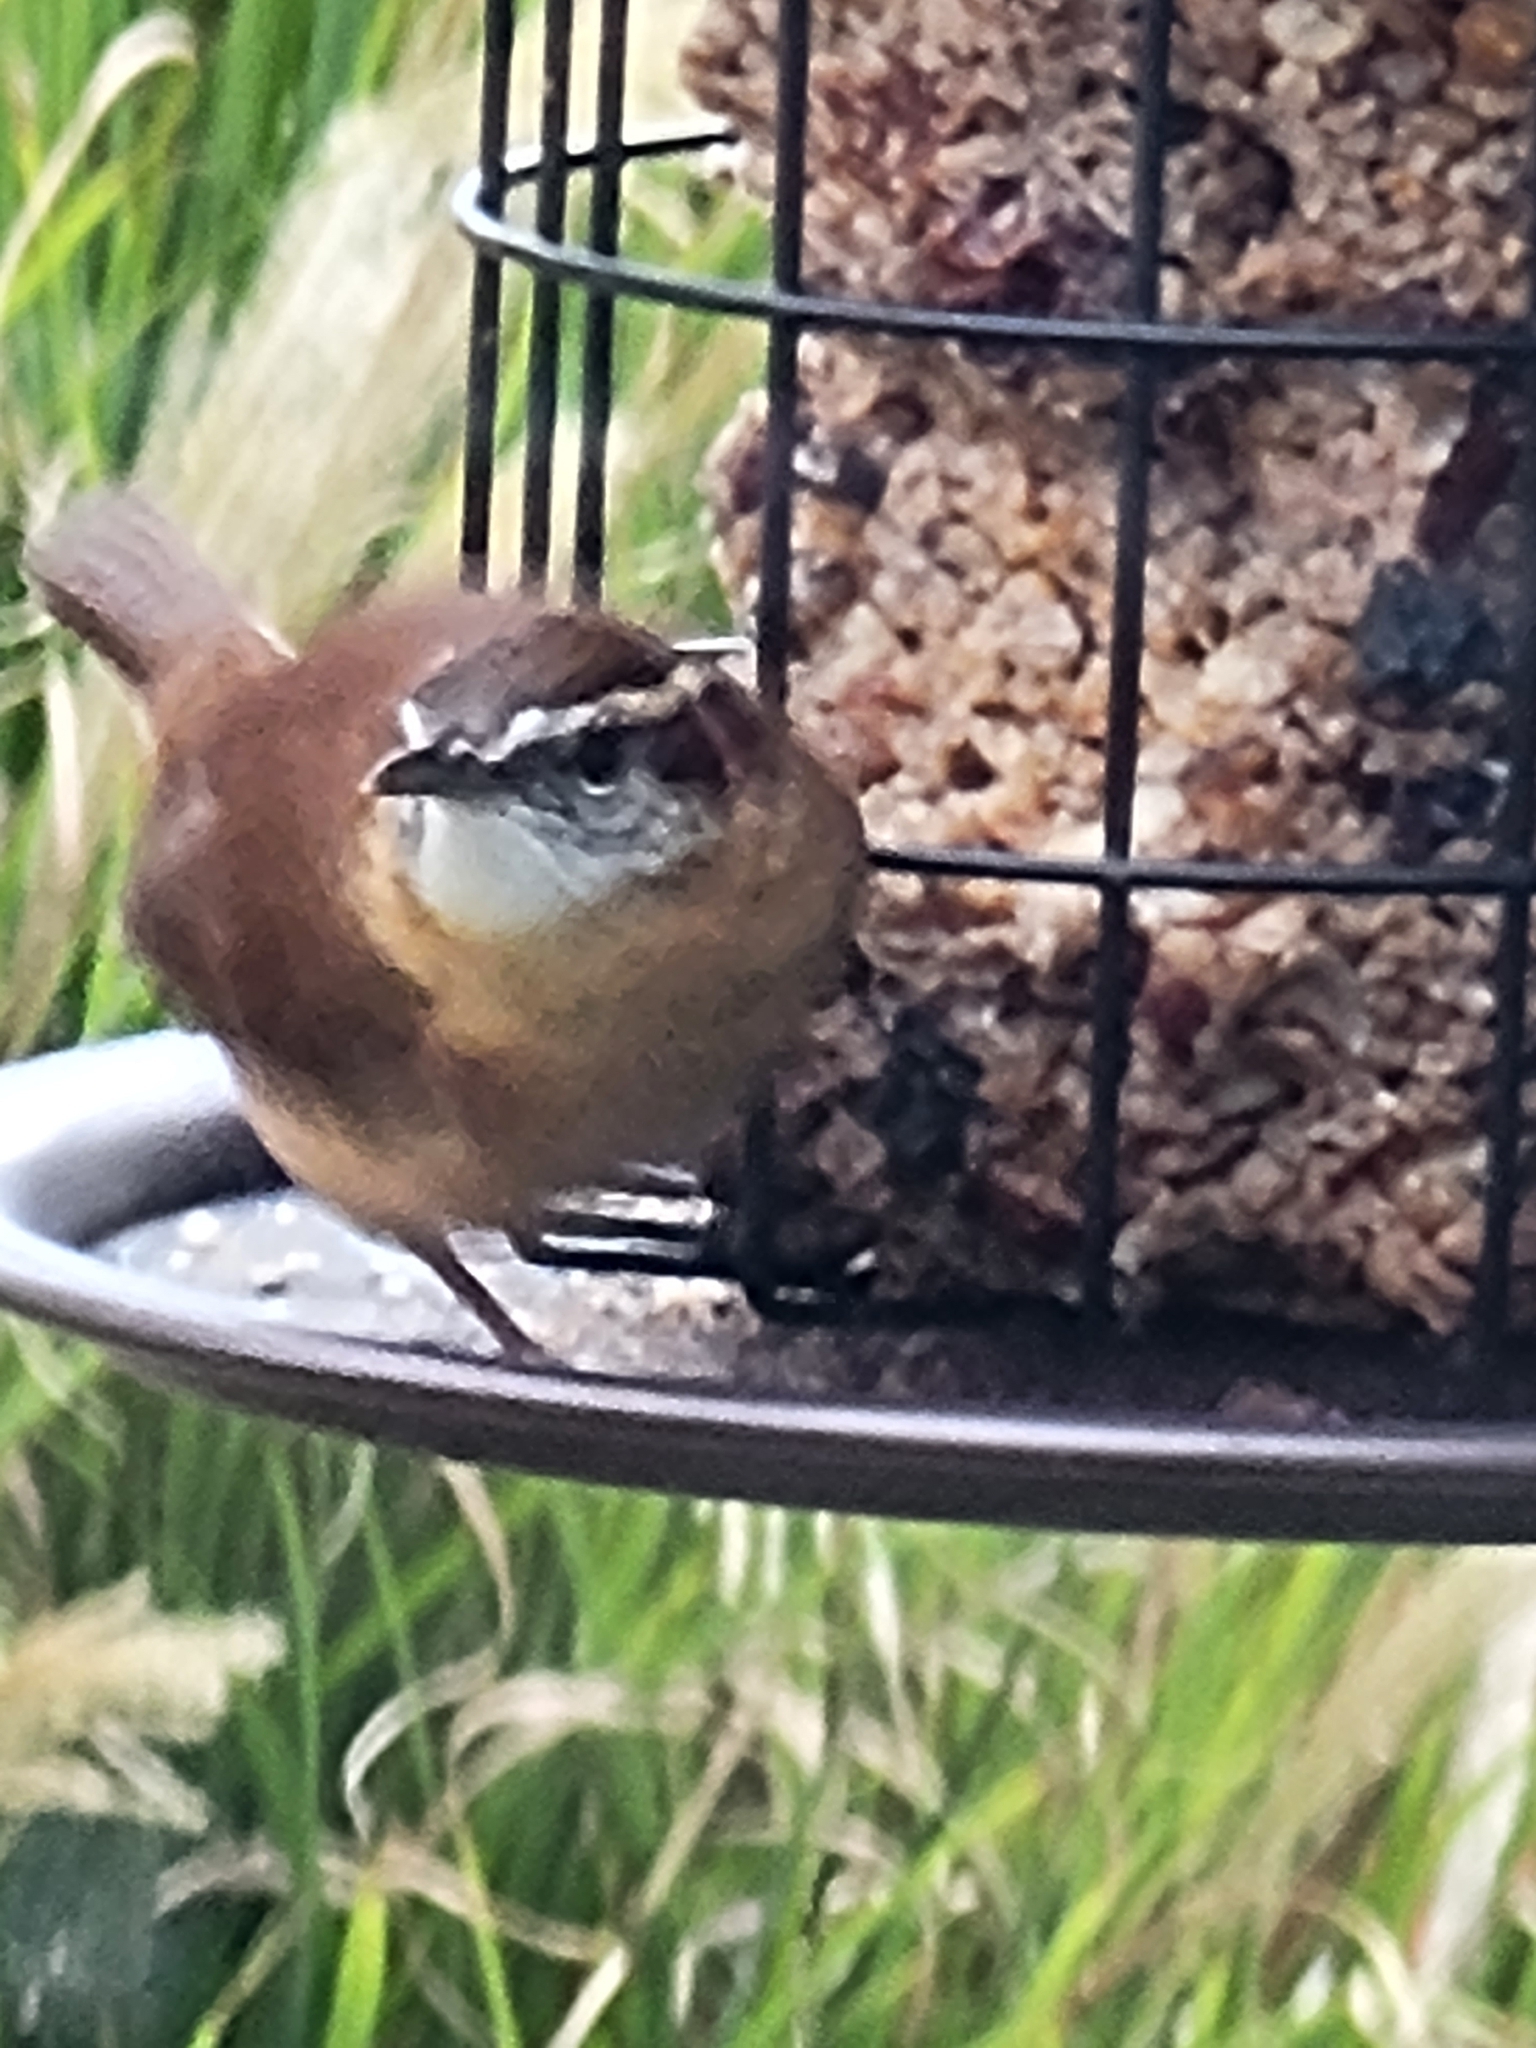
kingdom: Animalia
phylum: Chordata
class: Aves
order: Passeriformes
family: Troglodytidae
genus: Thryothorus
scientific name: Thryothorus ludovicianus
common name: Carolina wren
